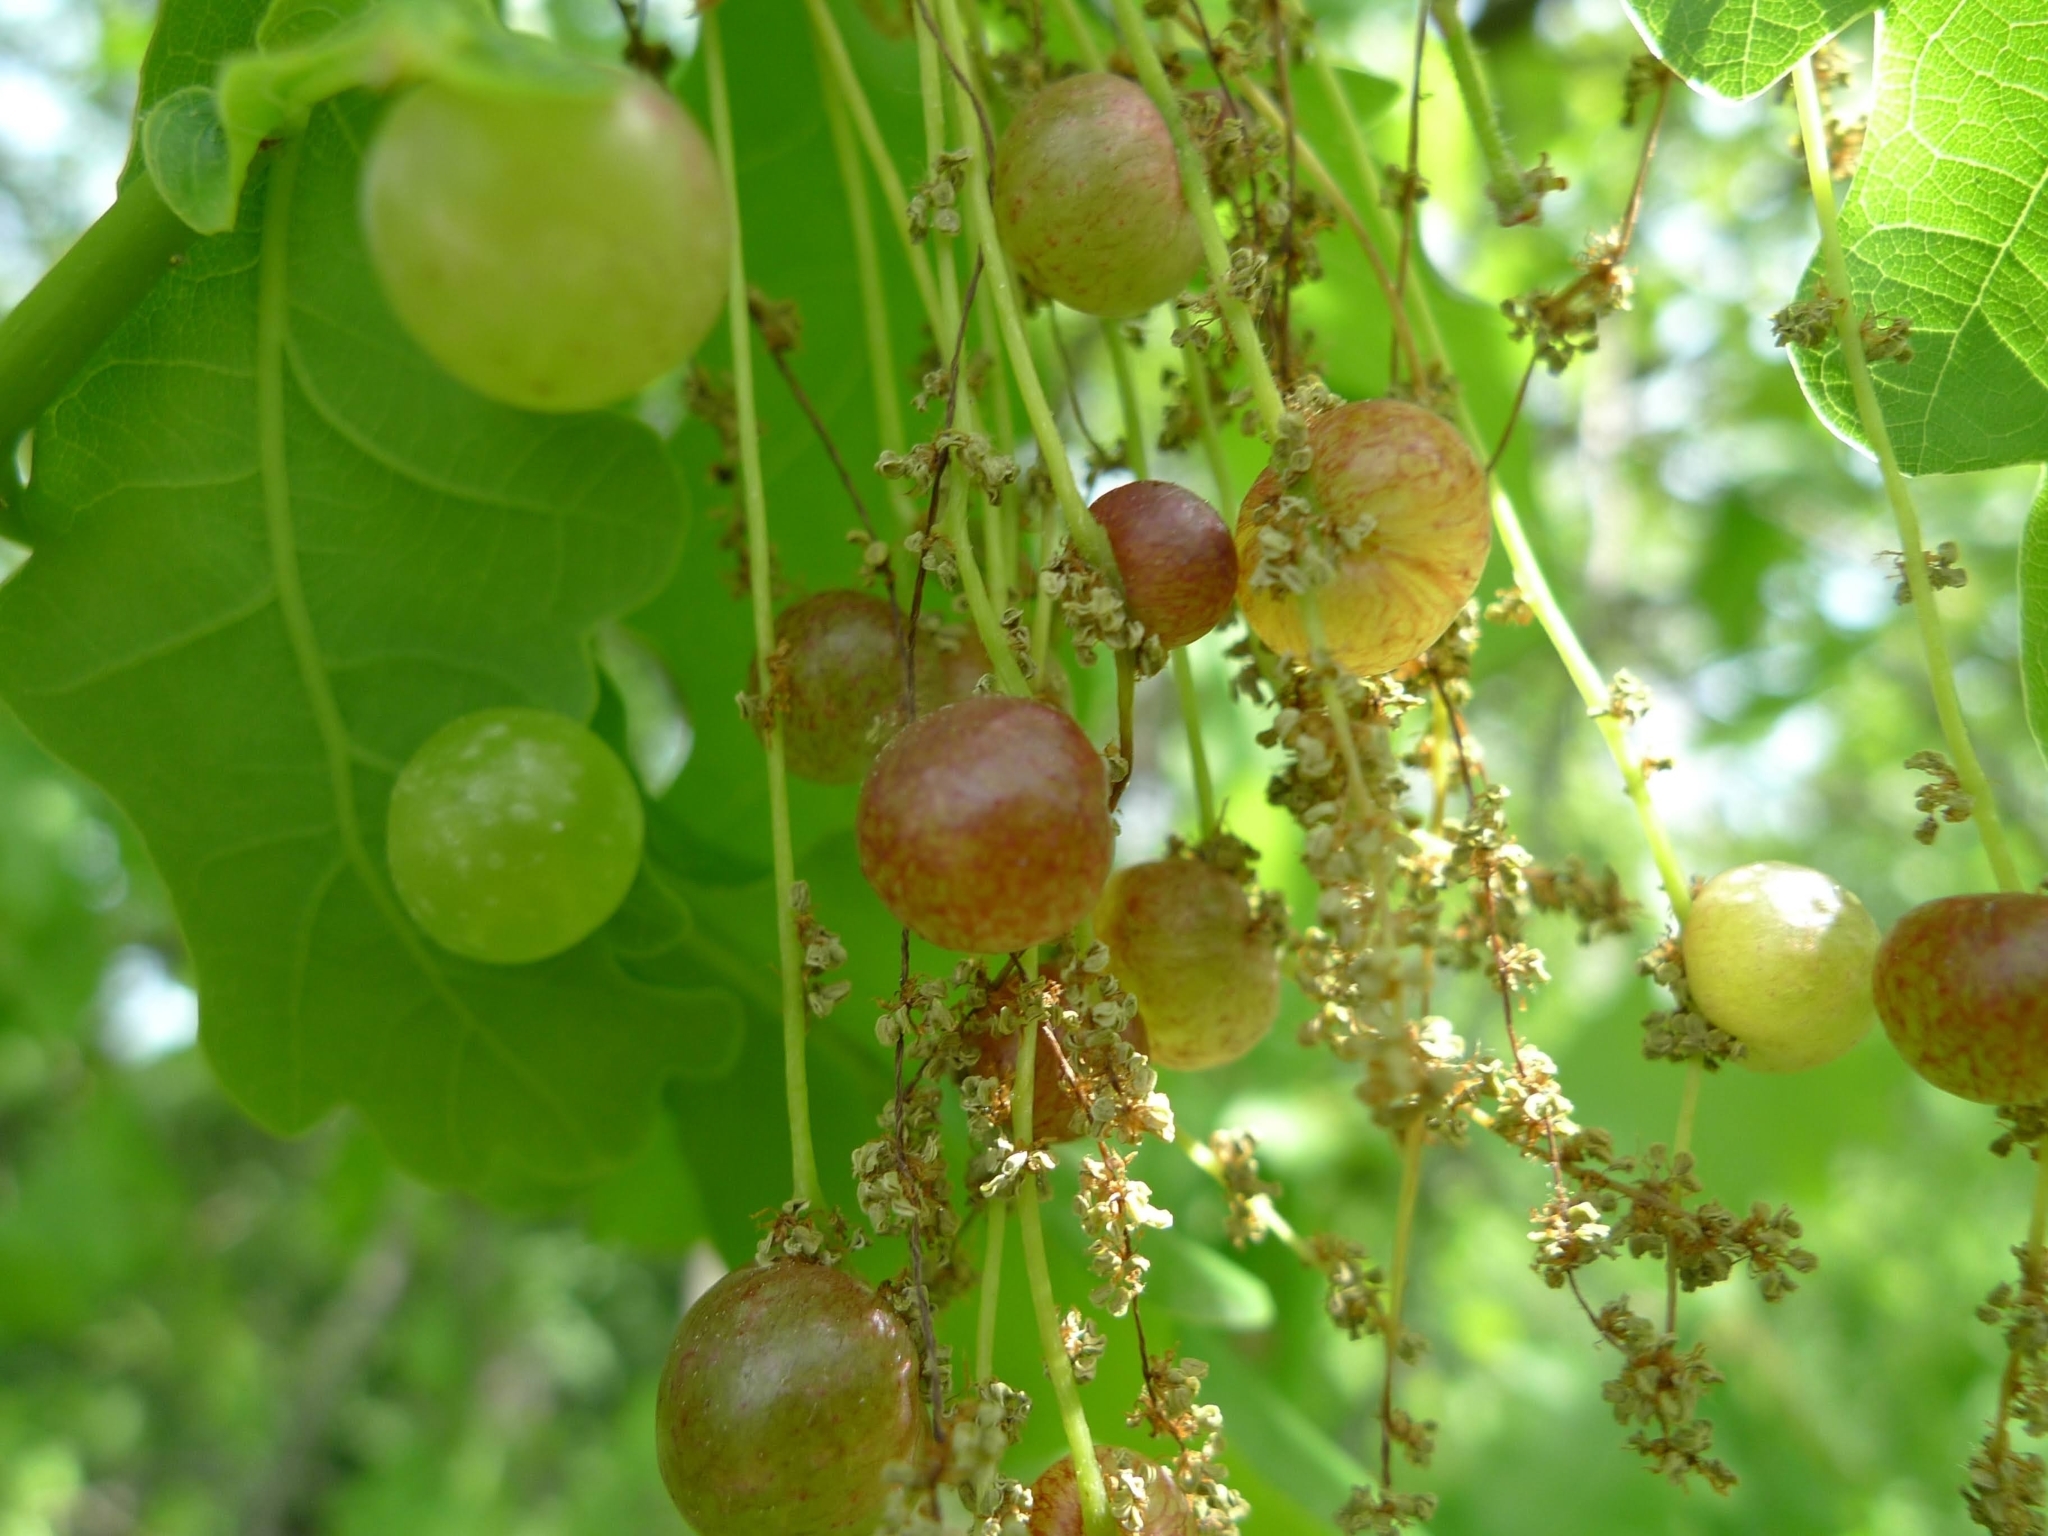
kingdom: Animalia
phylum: Arthropoda
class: Insecta
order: Hymenoptera
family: Cynipidae
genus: Neuroterus
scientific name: Neuroterus quercusbaccarum
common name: Common spangle gall
